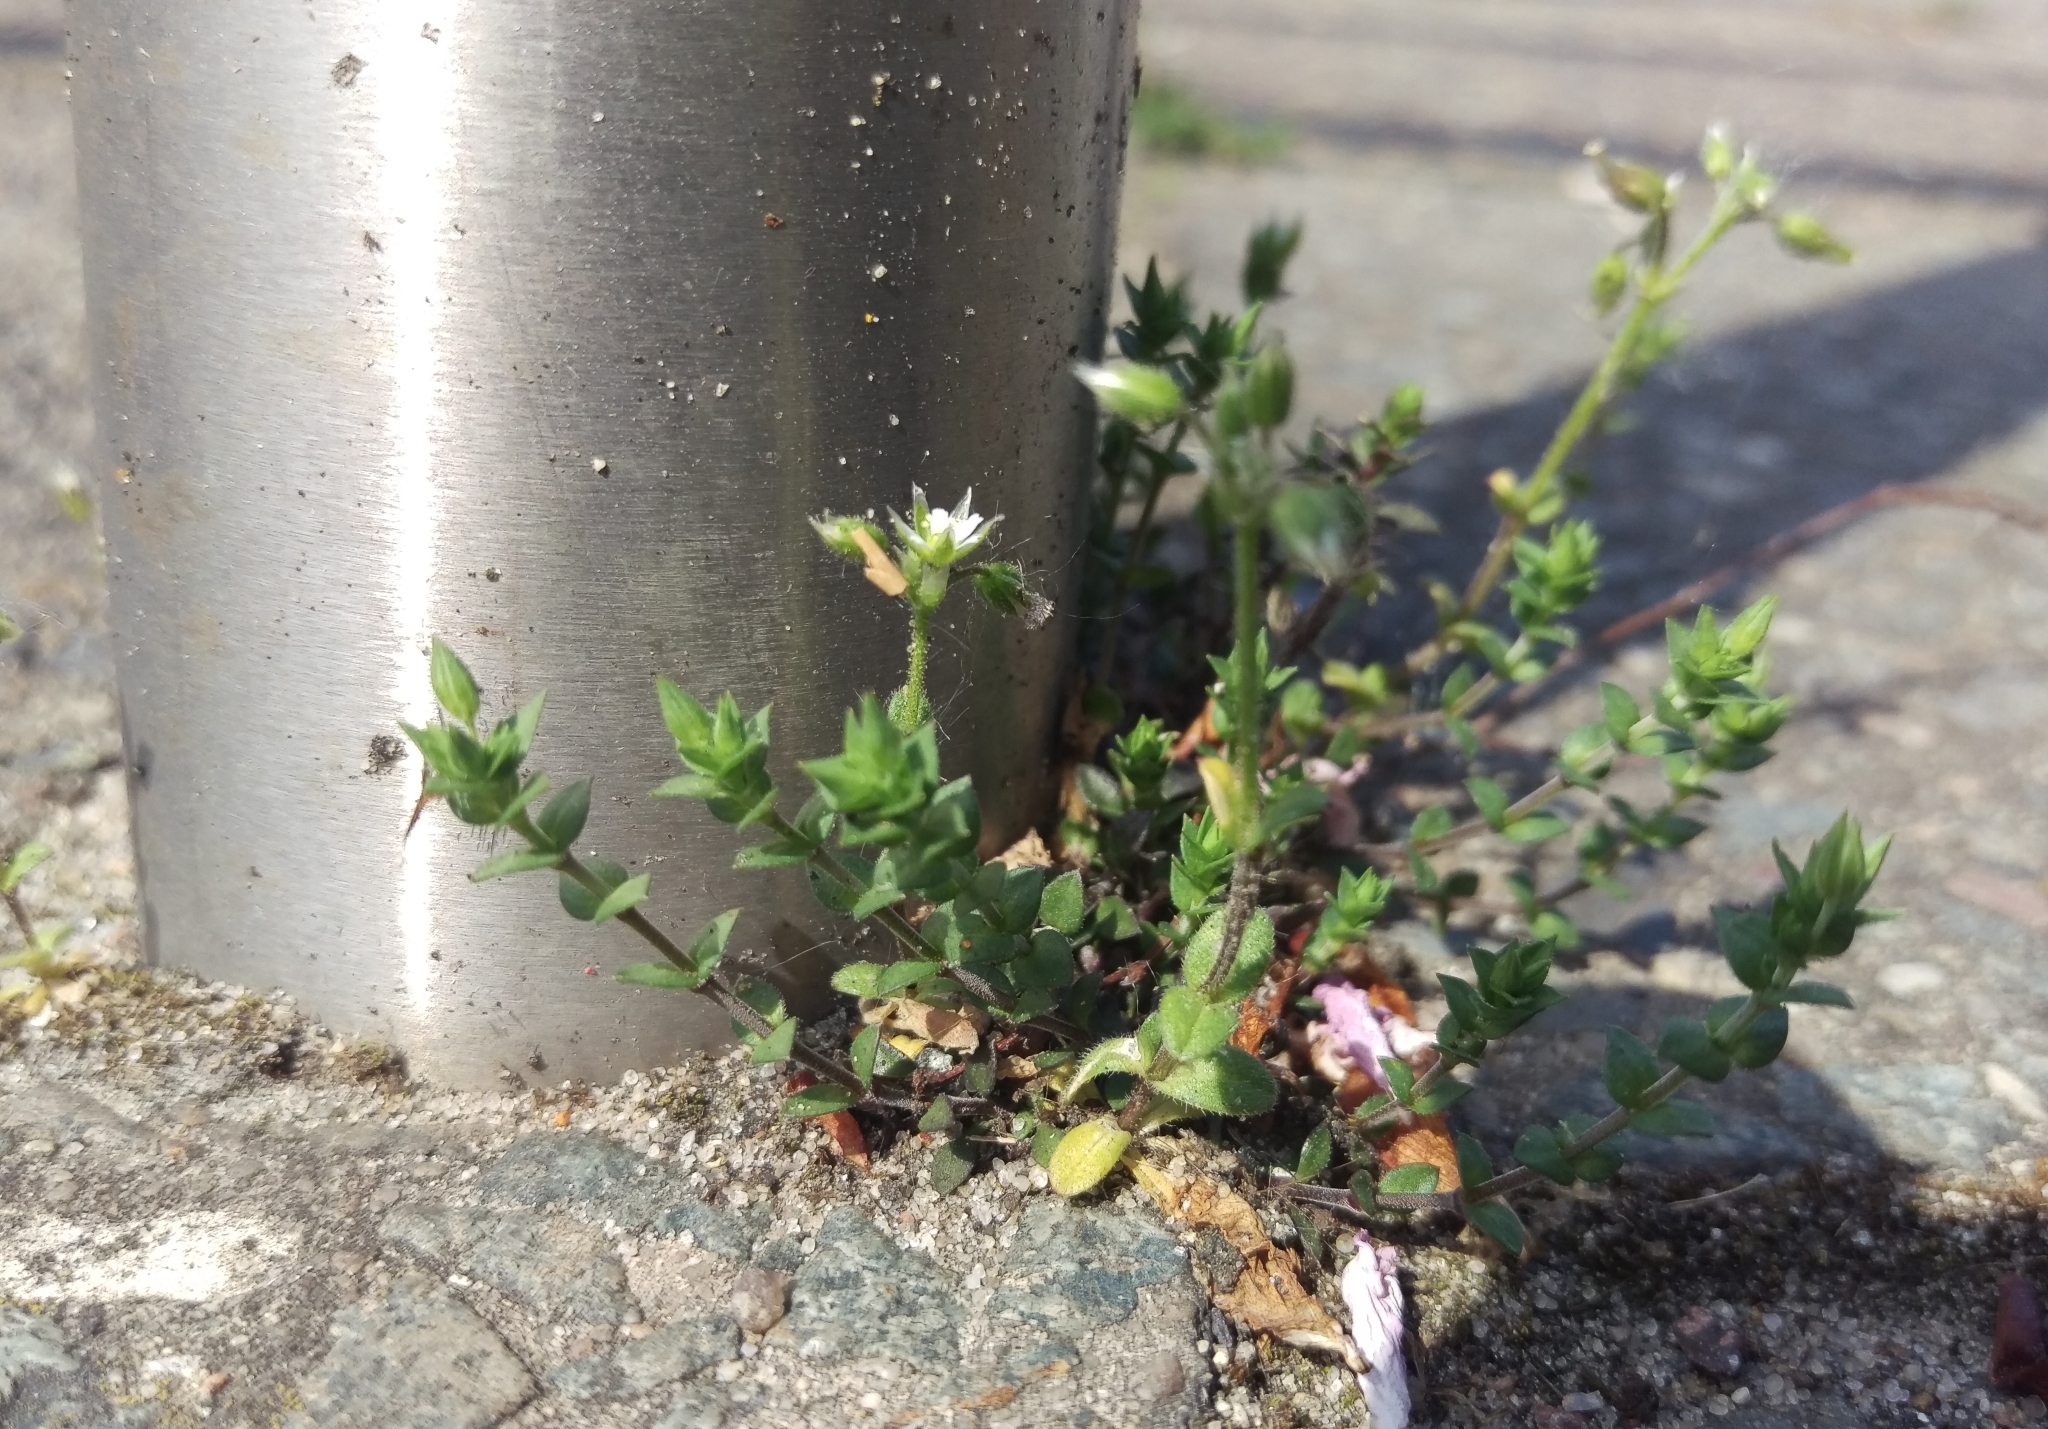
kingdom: Plantae
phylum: Tracheophyta
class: Magnoliopsida
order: Caryophyllales
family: Caryophyllaceae
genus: Arenaria
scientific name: Arenaria serpyllifolia
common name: Thyme-leaved sandwort
